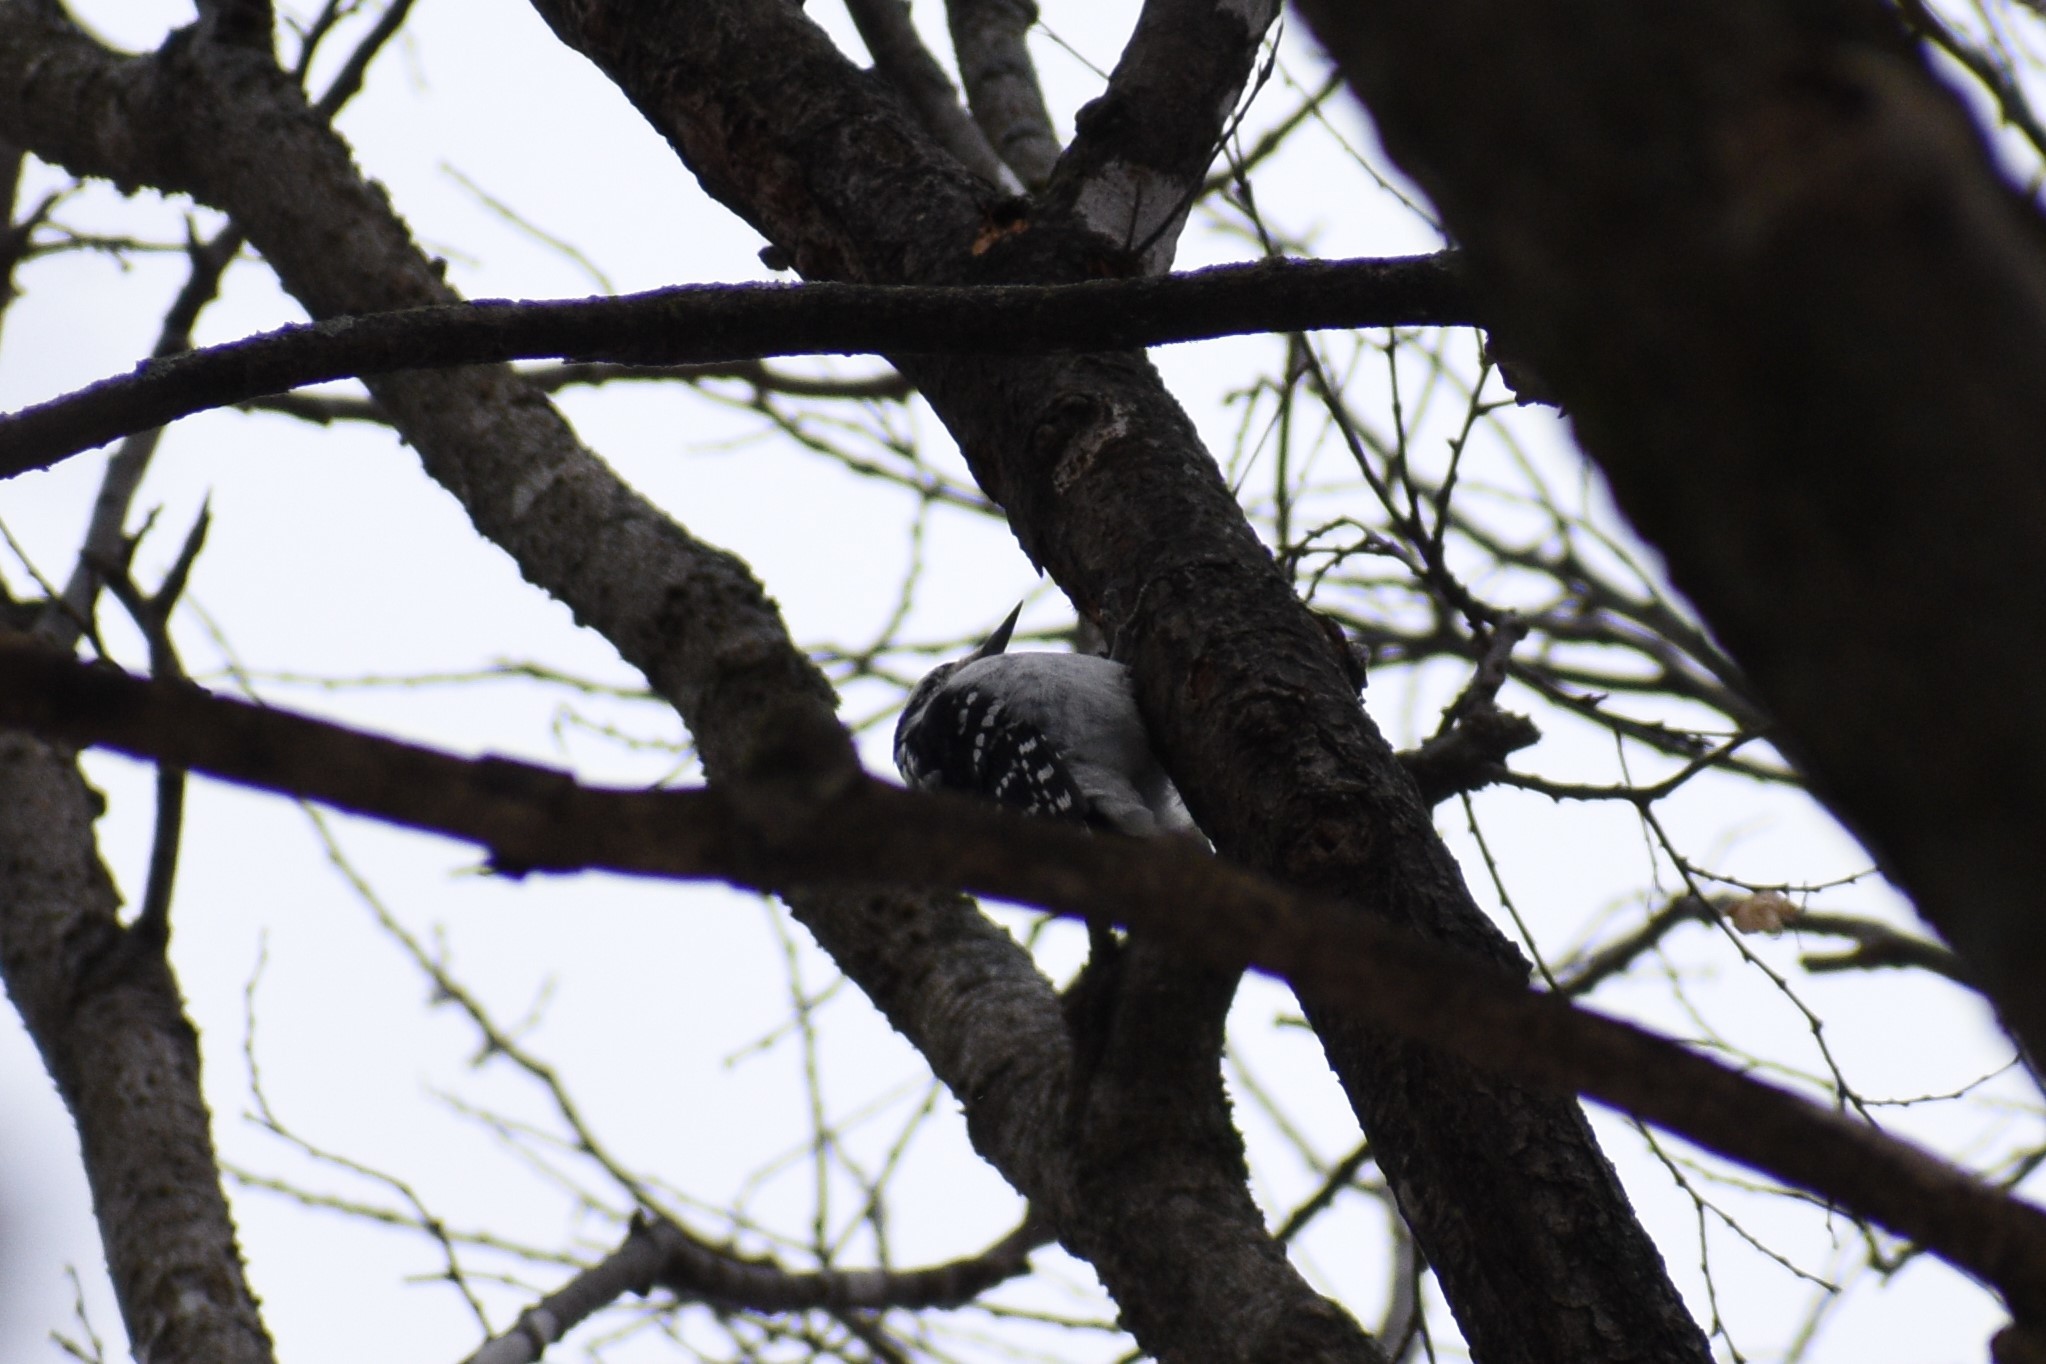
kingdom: Animalia
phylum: Chordata
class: Aves
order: Piciformes
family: Picidae
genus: Leuconotopicus
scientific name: Leuconotopicus villosus
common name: Hairy woodpecker
